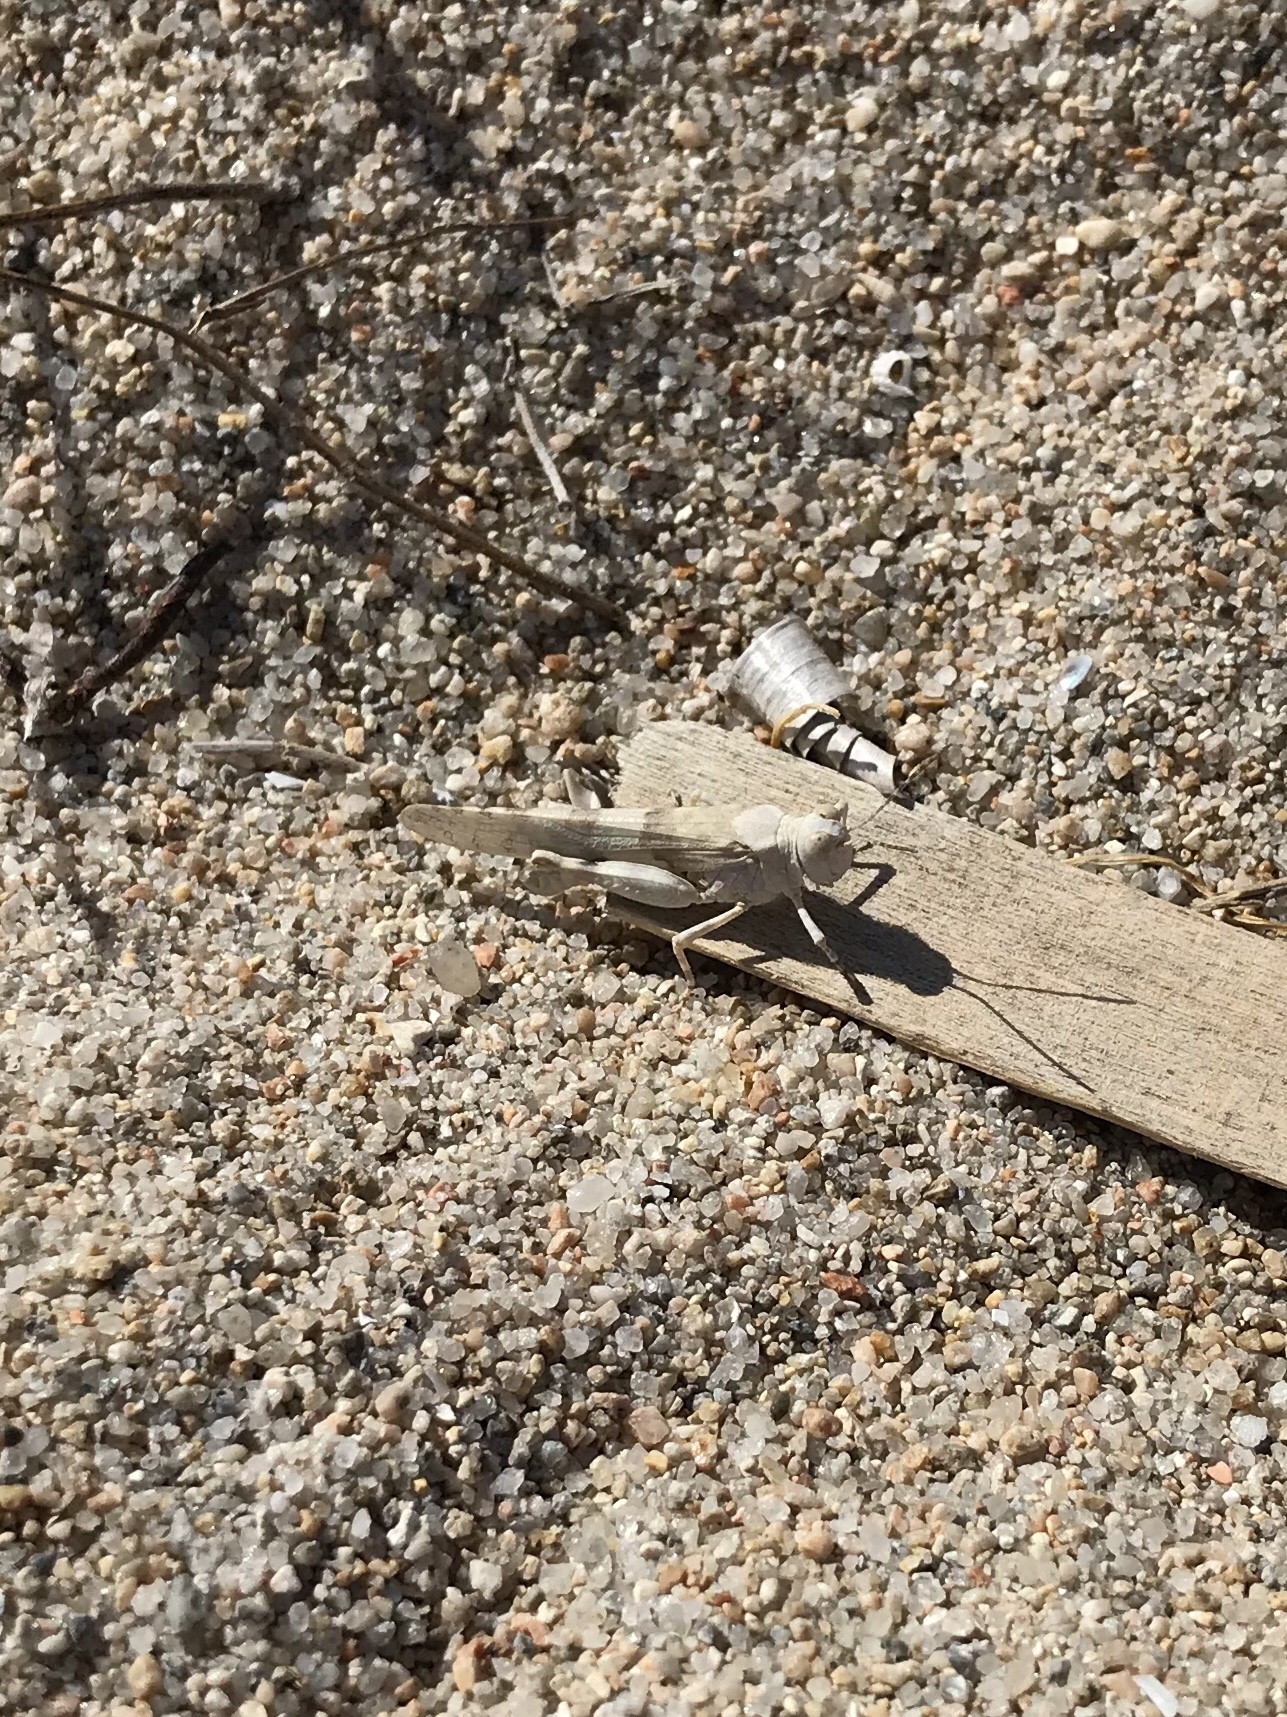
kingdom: Animalia
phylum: Arthropoda
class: Insecta
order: Orthoptera
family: Acrididae
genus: Oedipoda
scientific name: Oedipoda caerulescens
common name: Blue-winged grasshopper
